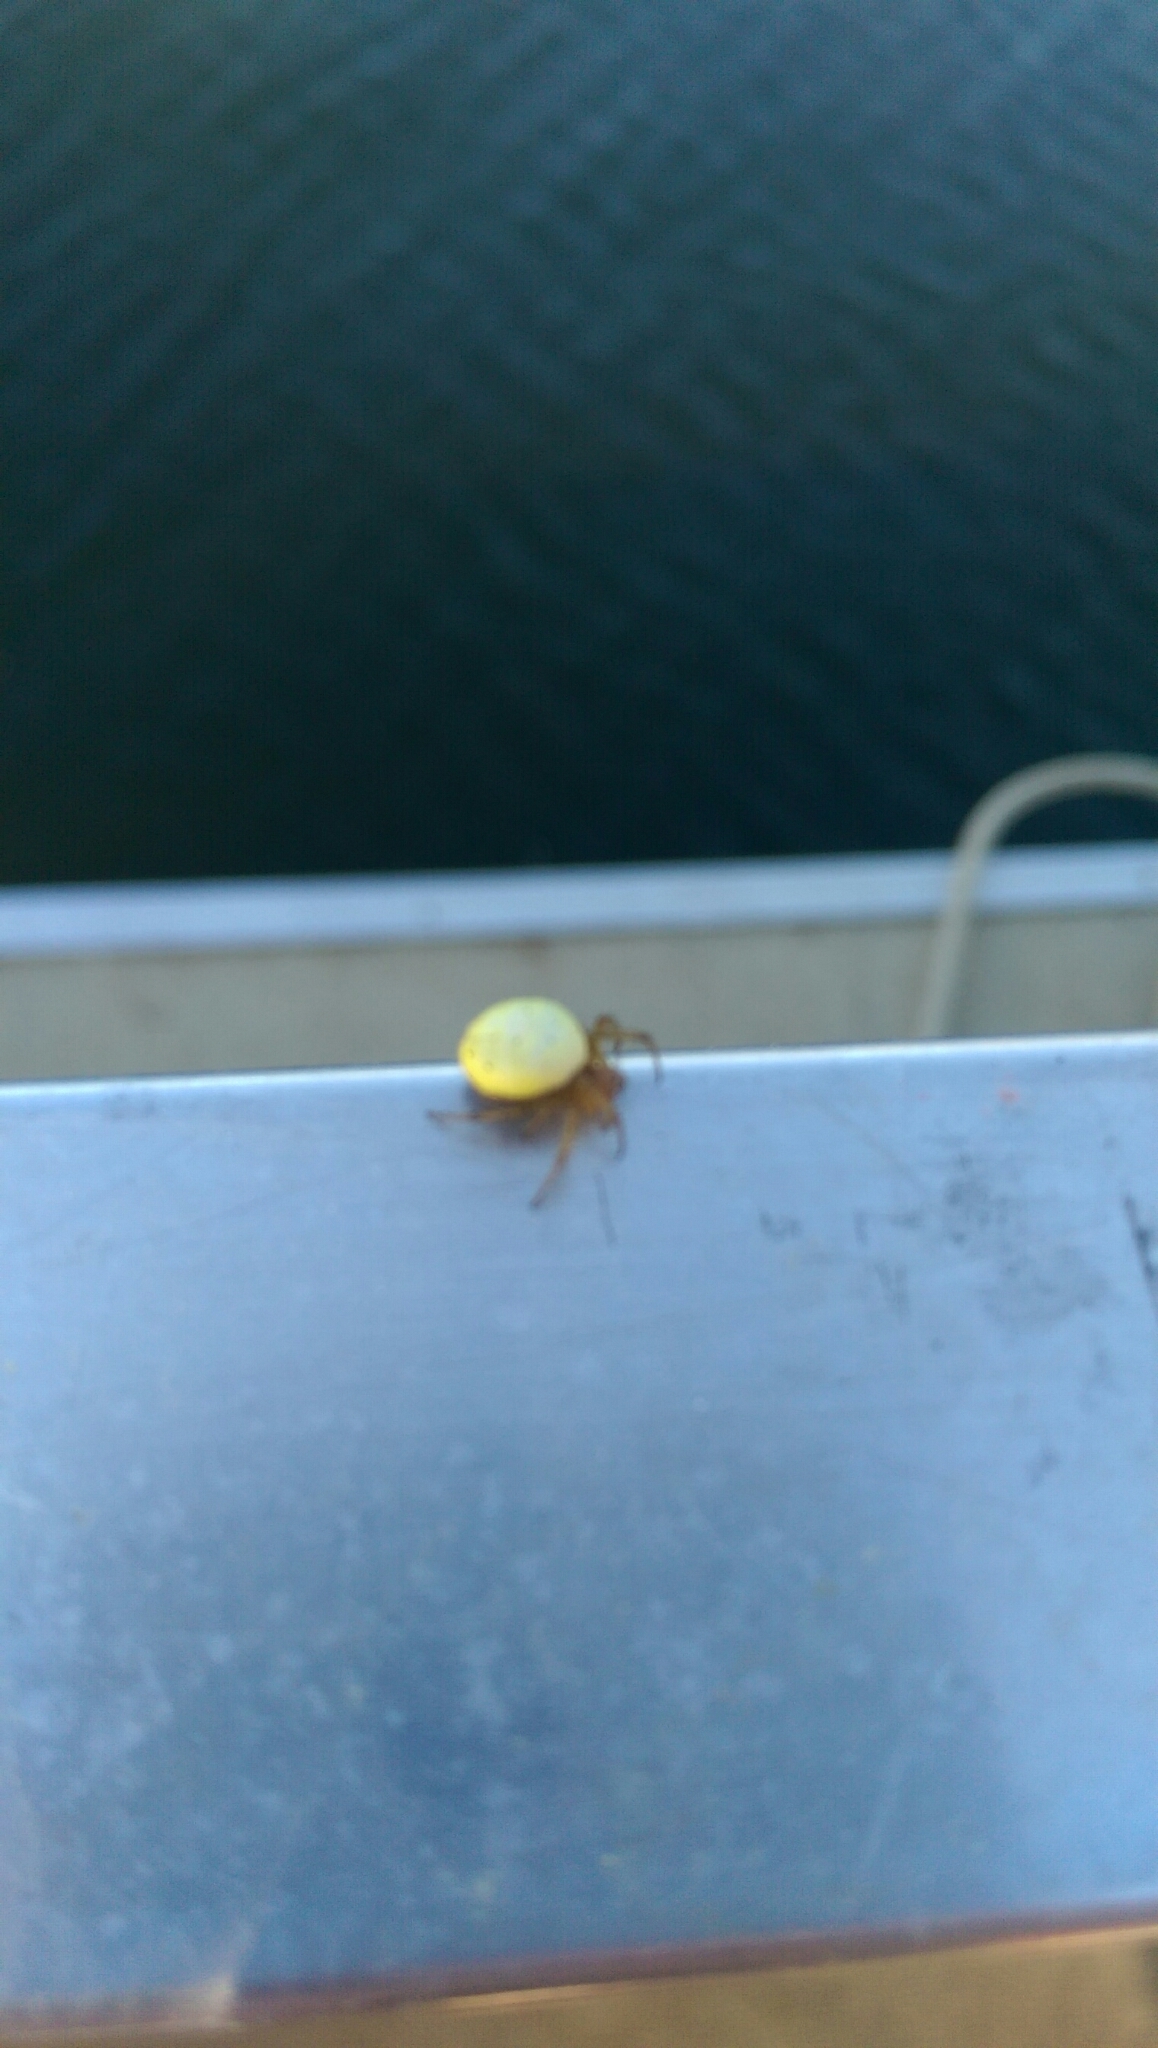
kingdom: Animalia
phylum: Arthropoda
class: Arachnida
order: Araneae
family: Araneidae
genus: Araniella
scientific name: Araniella displicata
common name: Sixspotted orb weaver
